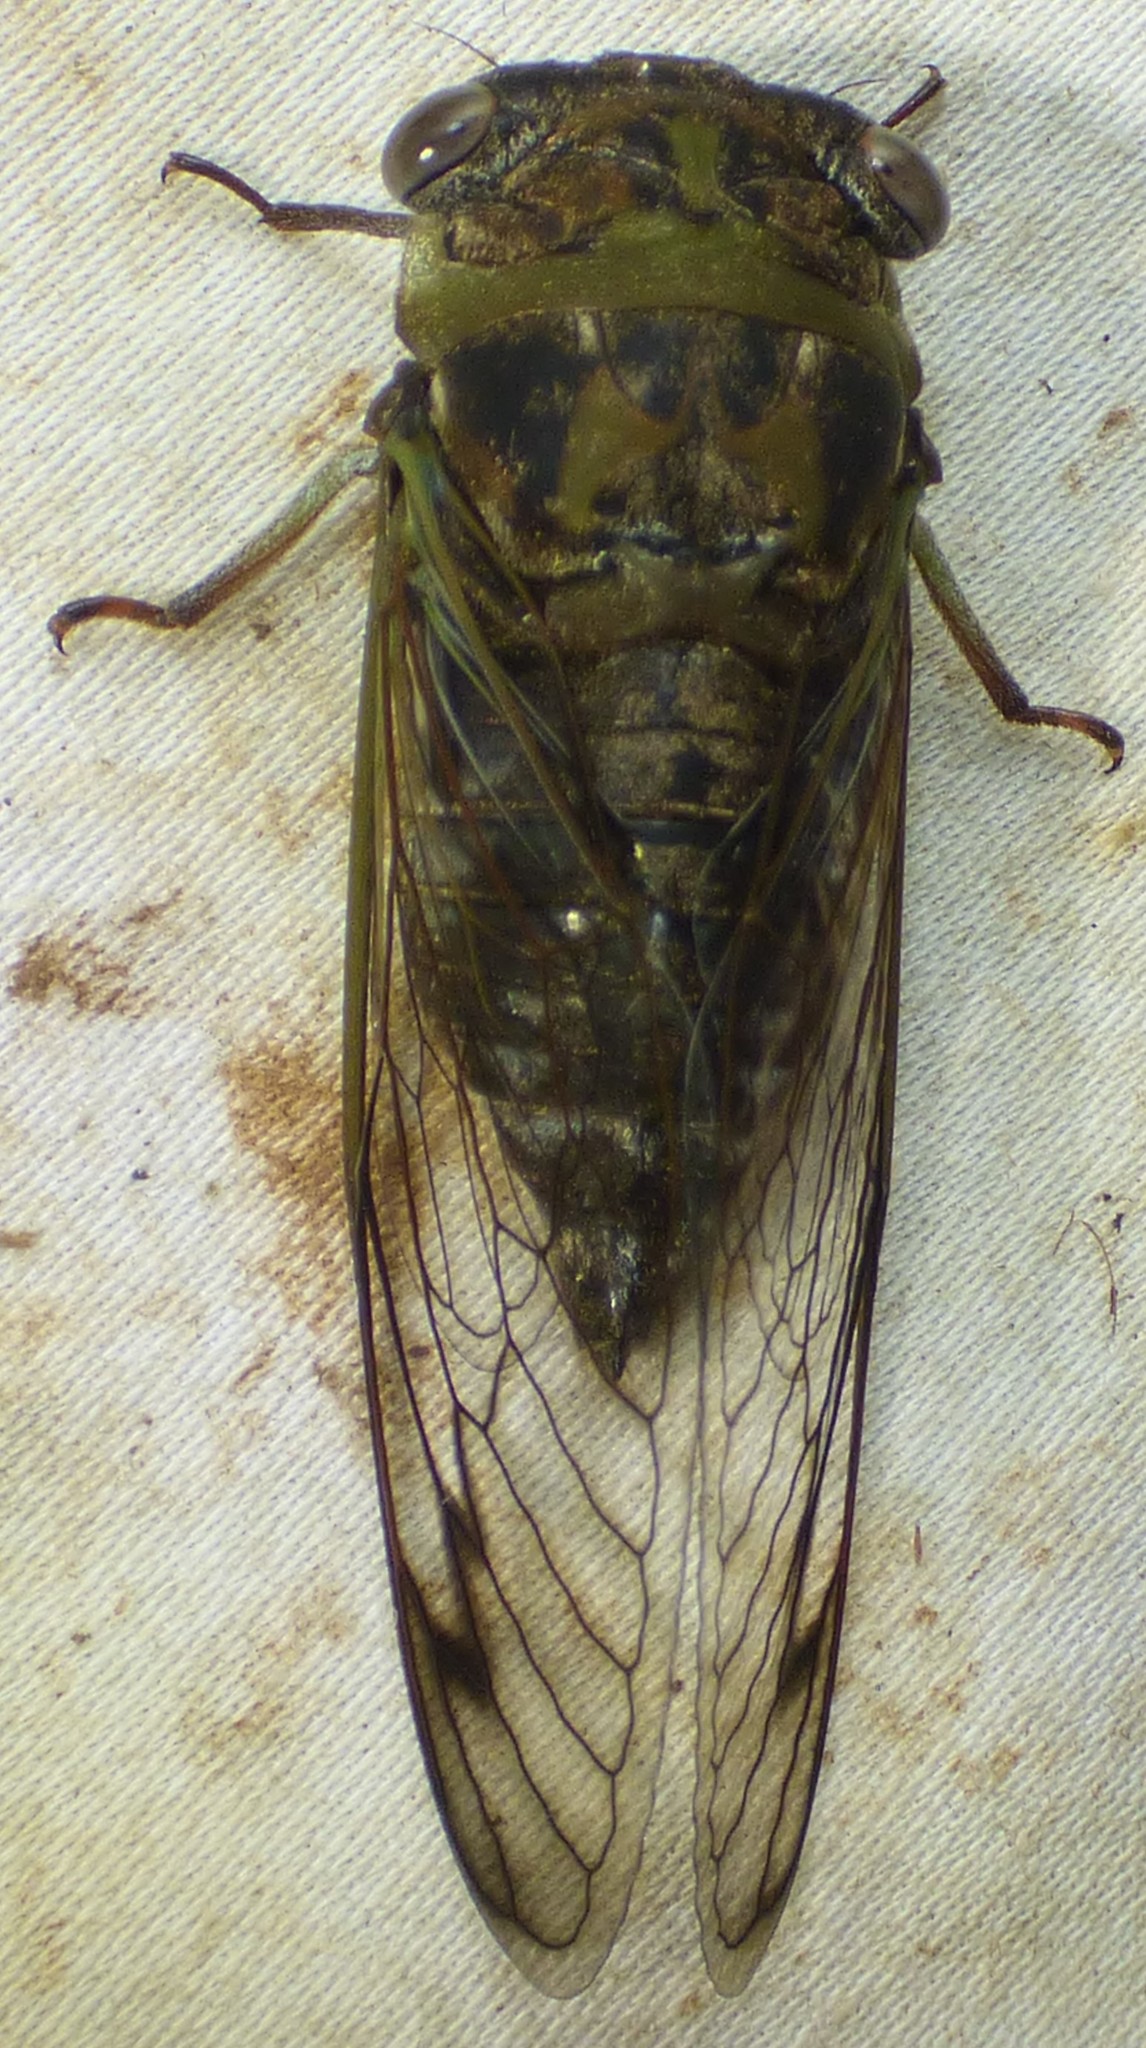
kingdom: Animalia
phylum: Arthropoda
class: Insecta
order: Hemiptera
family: Cicadidae
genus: Neotibicen
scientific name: Neotibicen davisi
